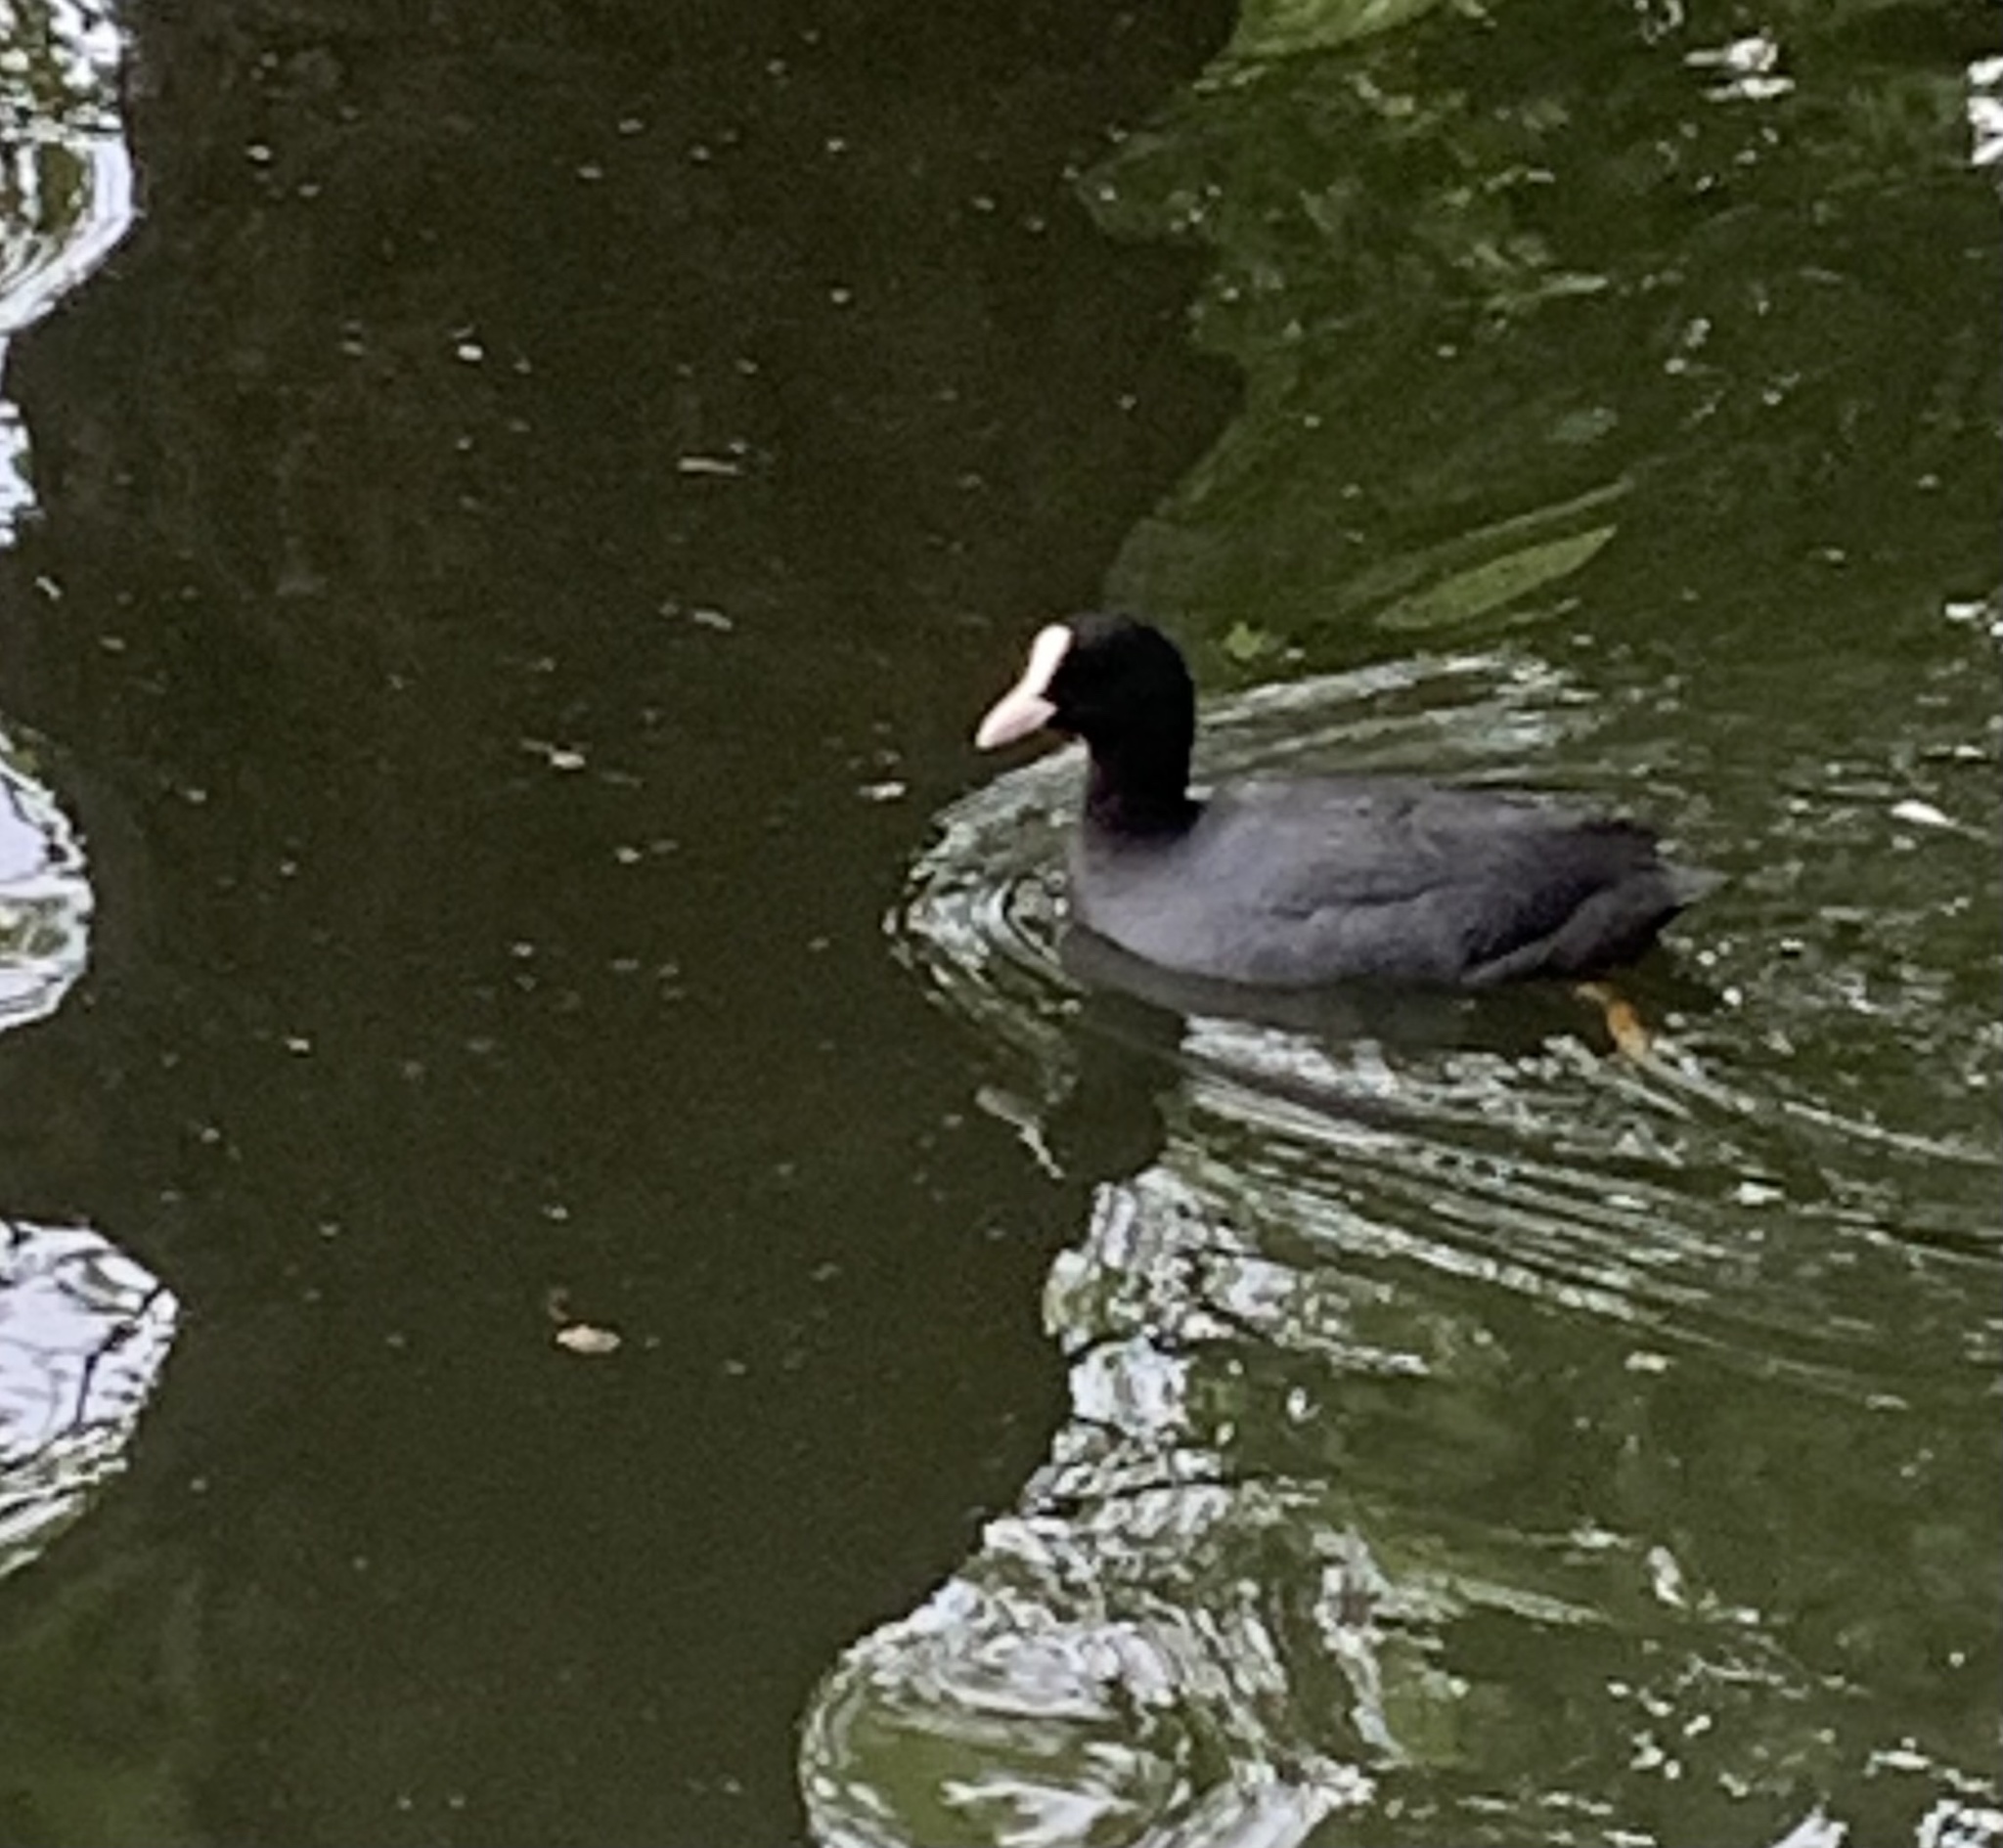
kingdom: Animalia
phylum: Chordata
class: Aves
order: Gruiformes
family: Rallidae
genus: Fulica
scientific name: Fulica atra
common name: Eurasian coot
